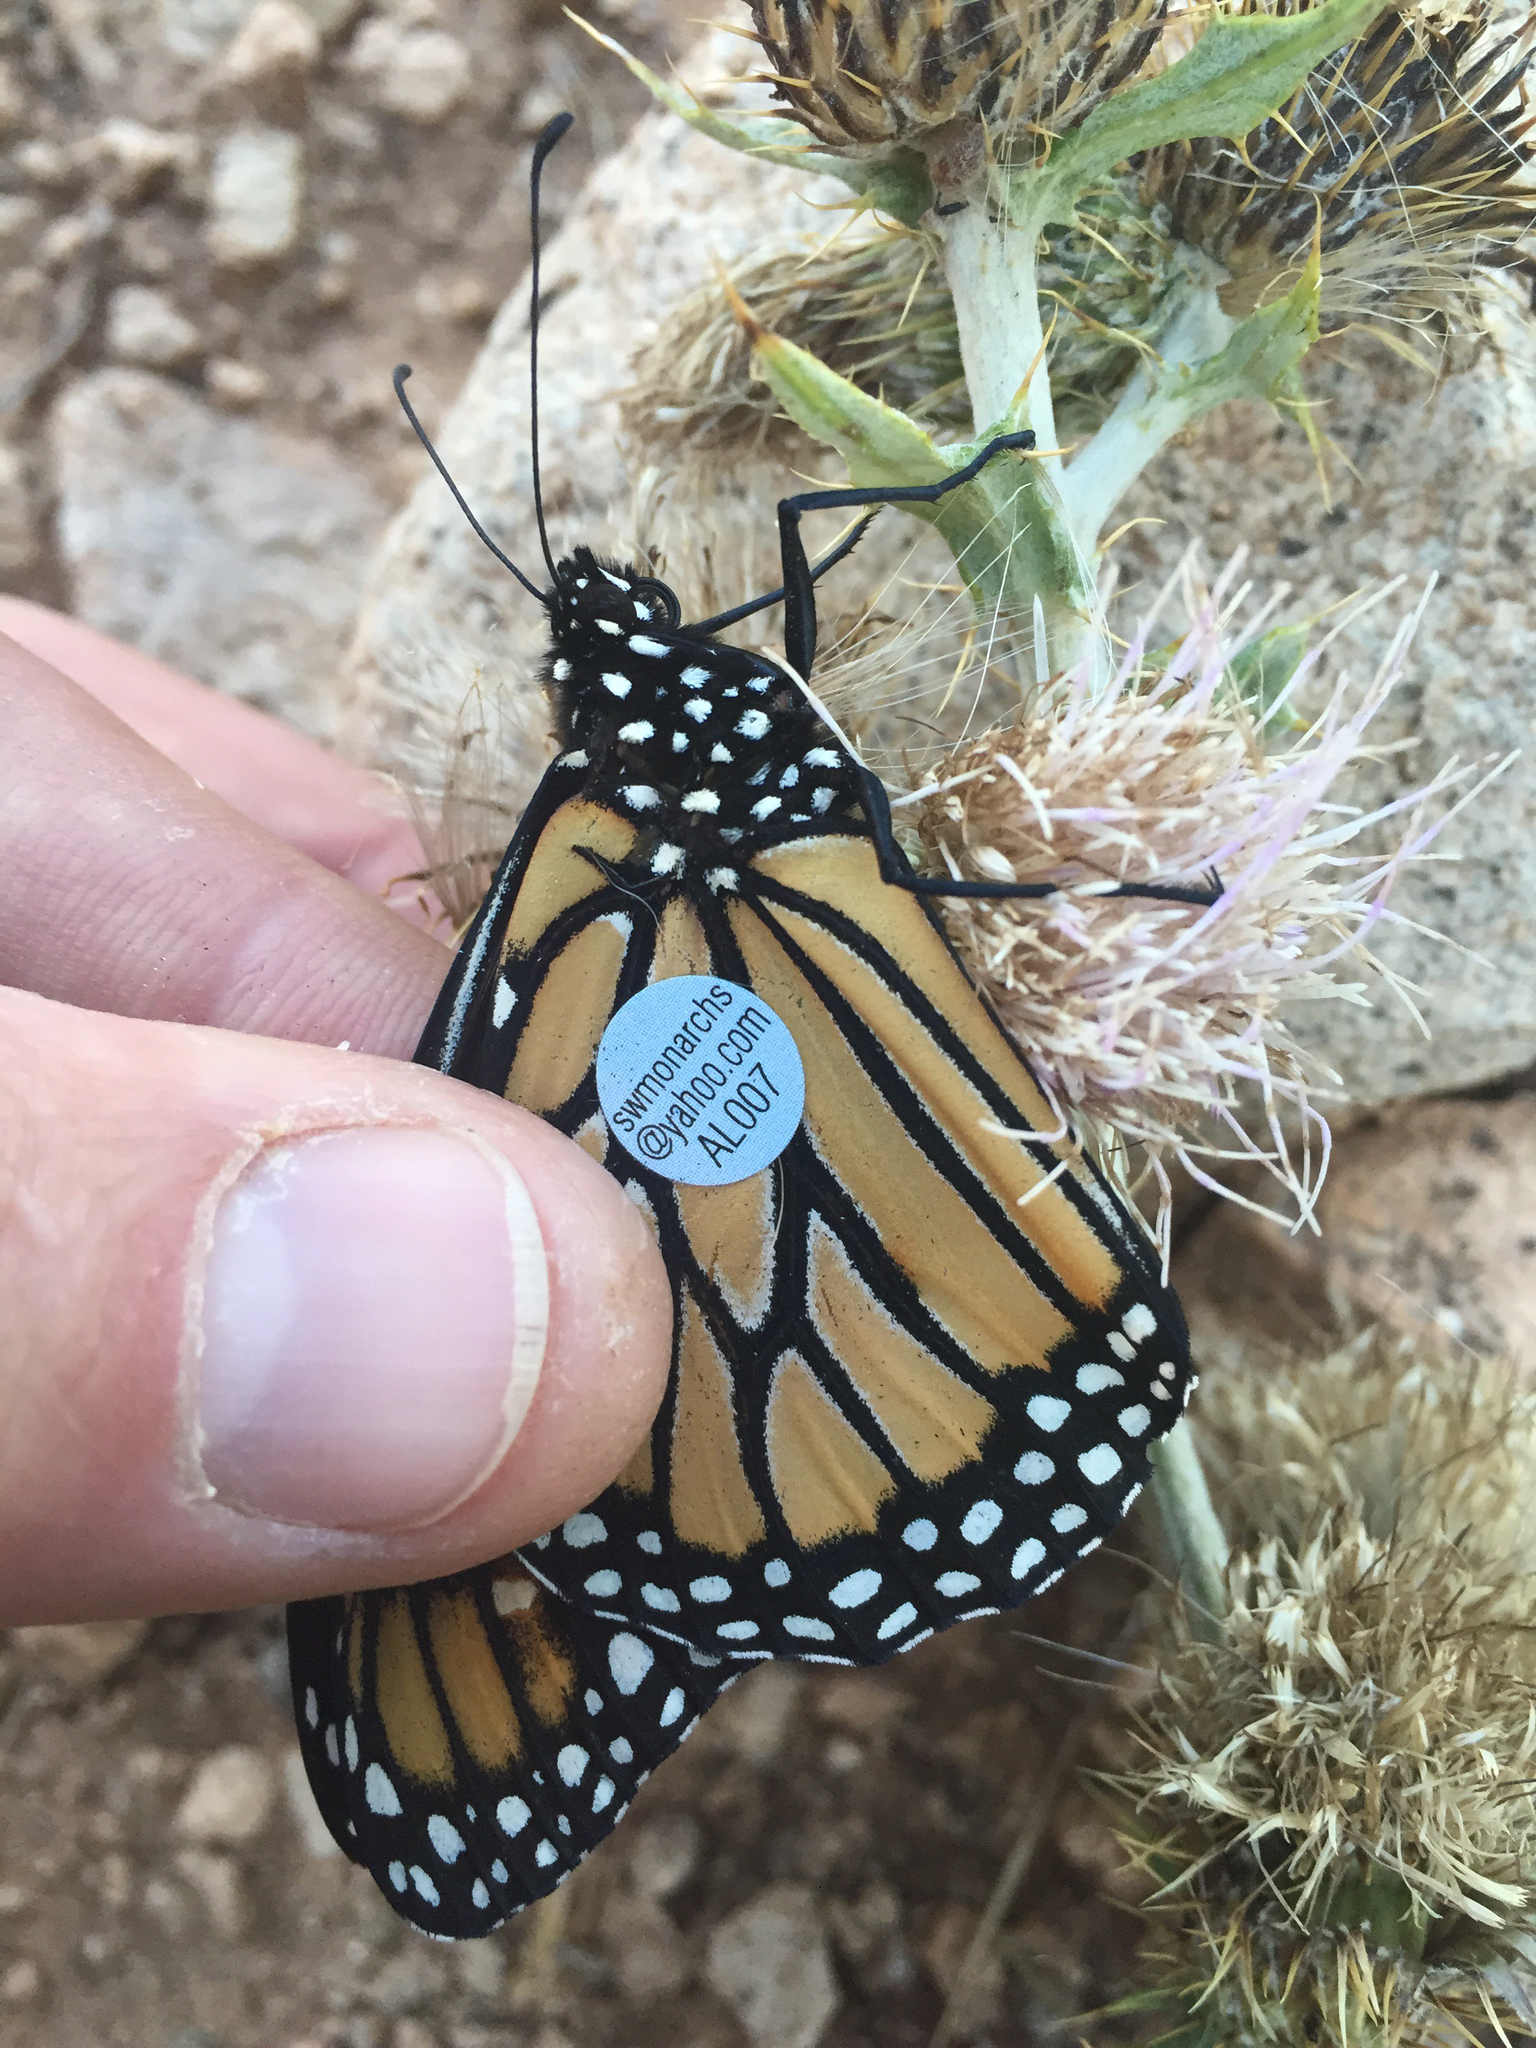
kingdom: Animalia
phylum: Arthropoda
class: Insecta
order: Lepidoptera
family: Nymphalidae
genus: Danaus
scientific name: Danaus plexippus
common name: Monarch
